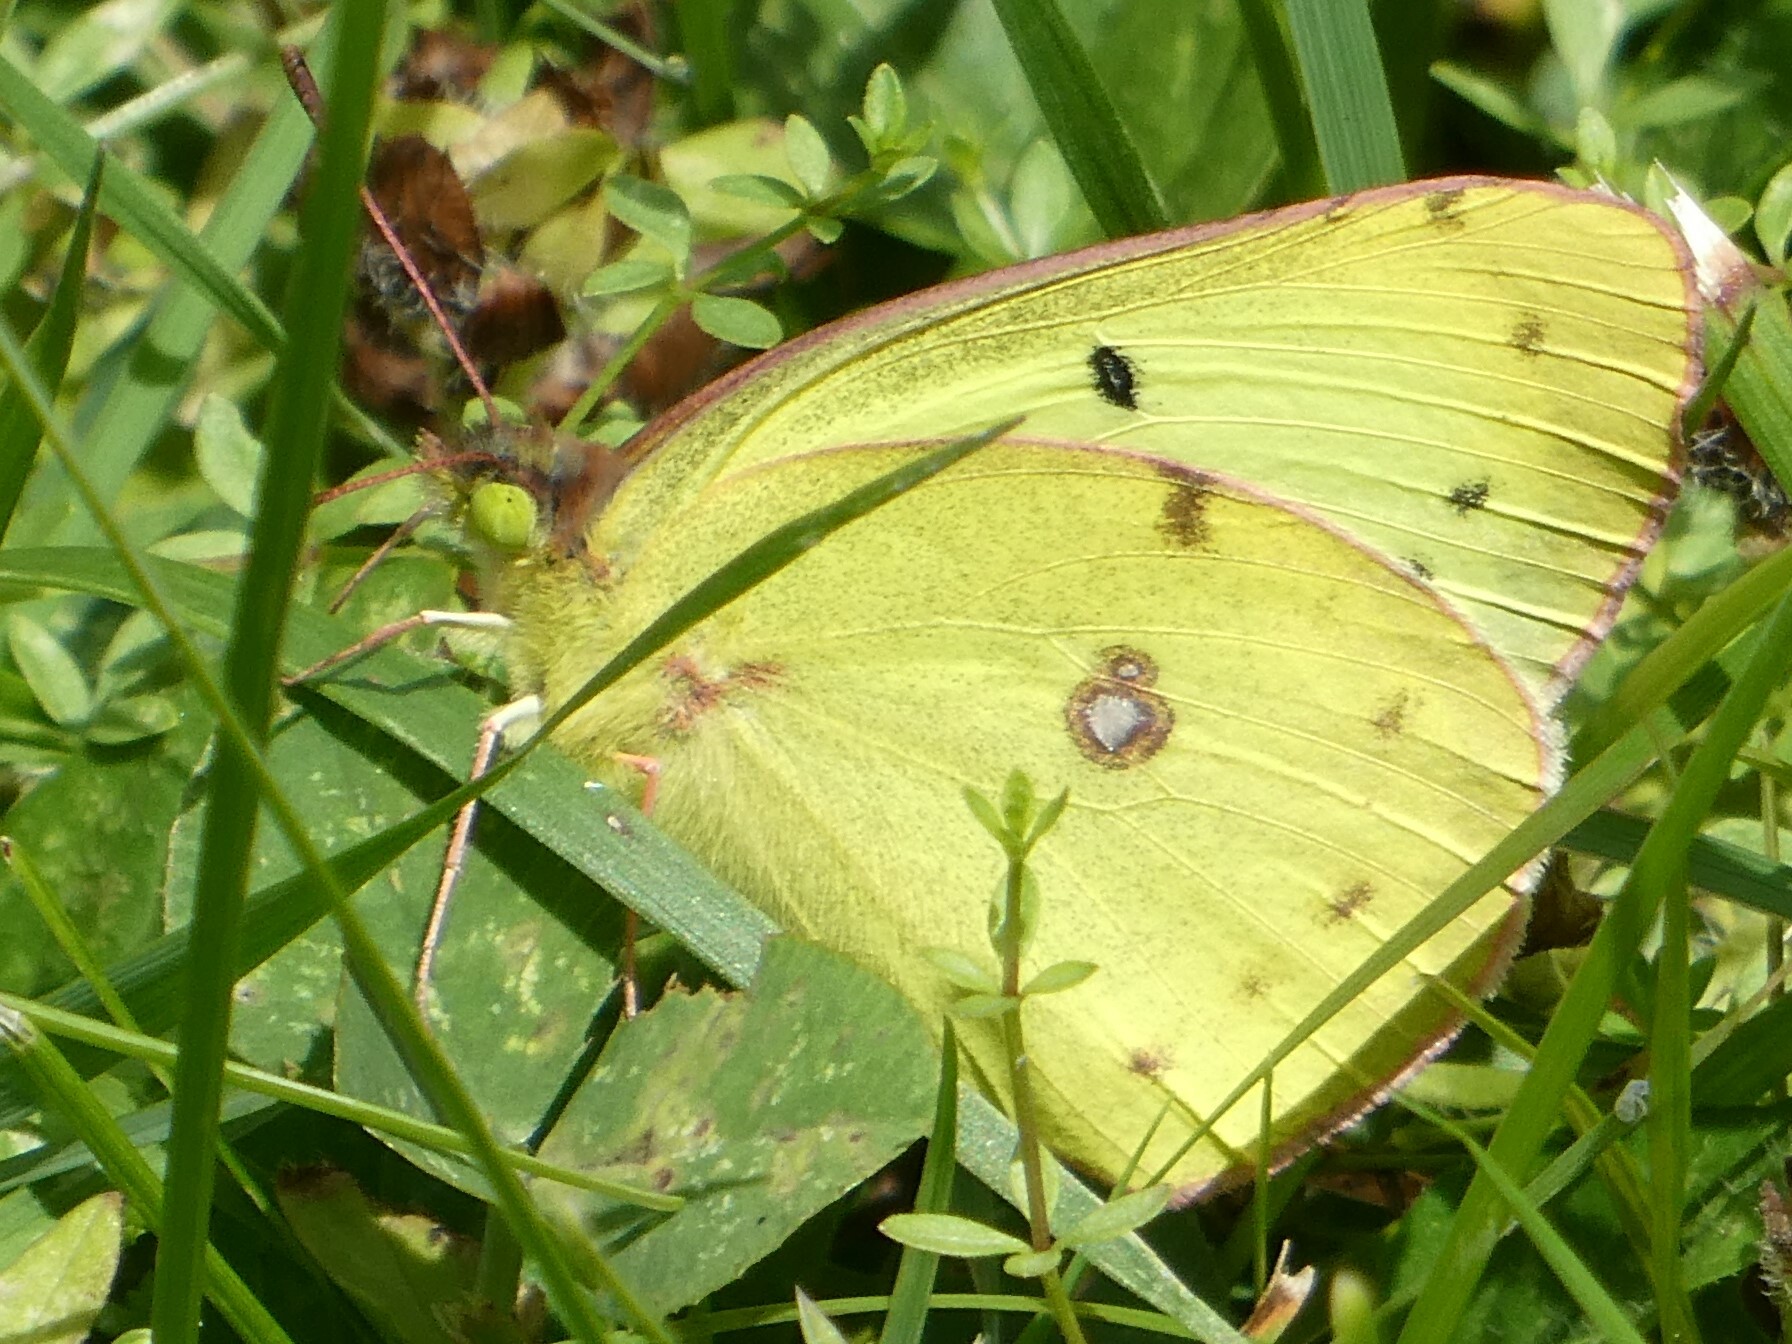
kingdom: Animalia
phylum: Arthropoda
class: Insecta
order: Lepidoptera
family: Pieridae
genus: Colias
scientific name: Colias philodice
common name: Clouded sulphur
